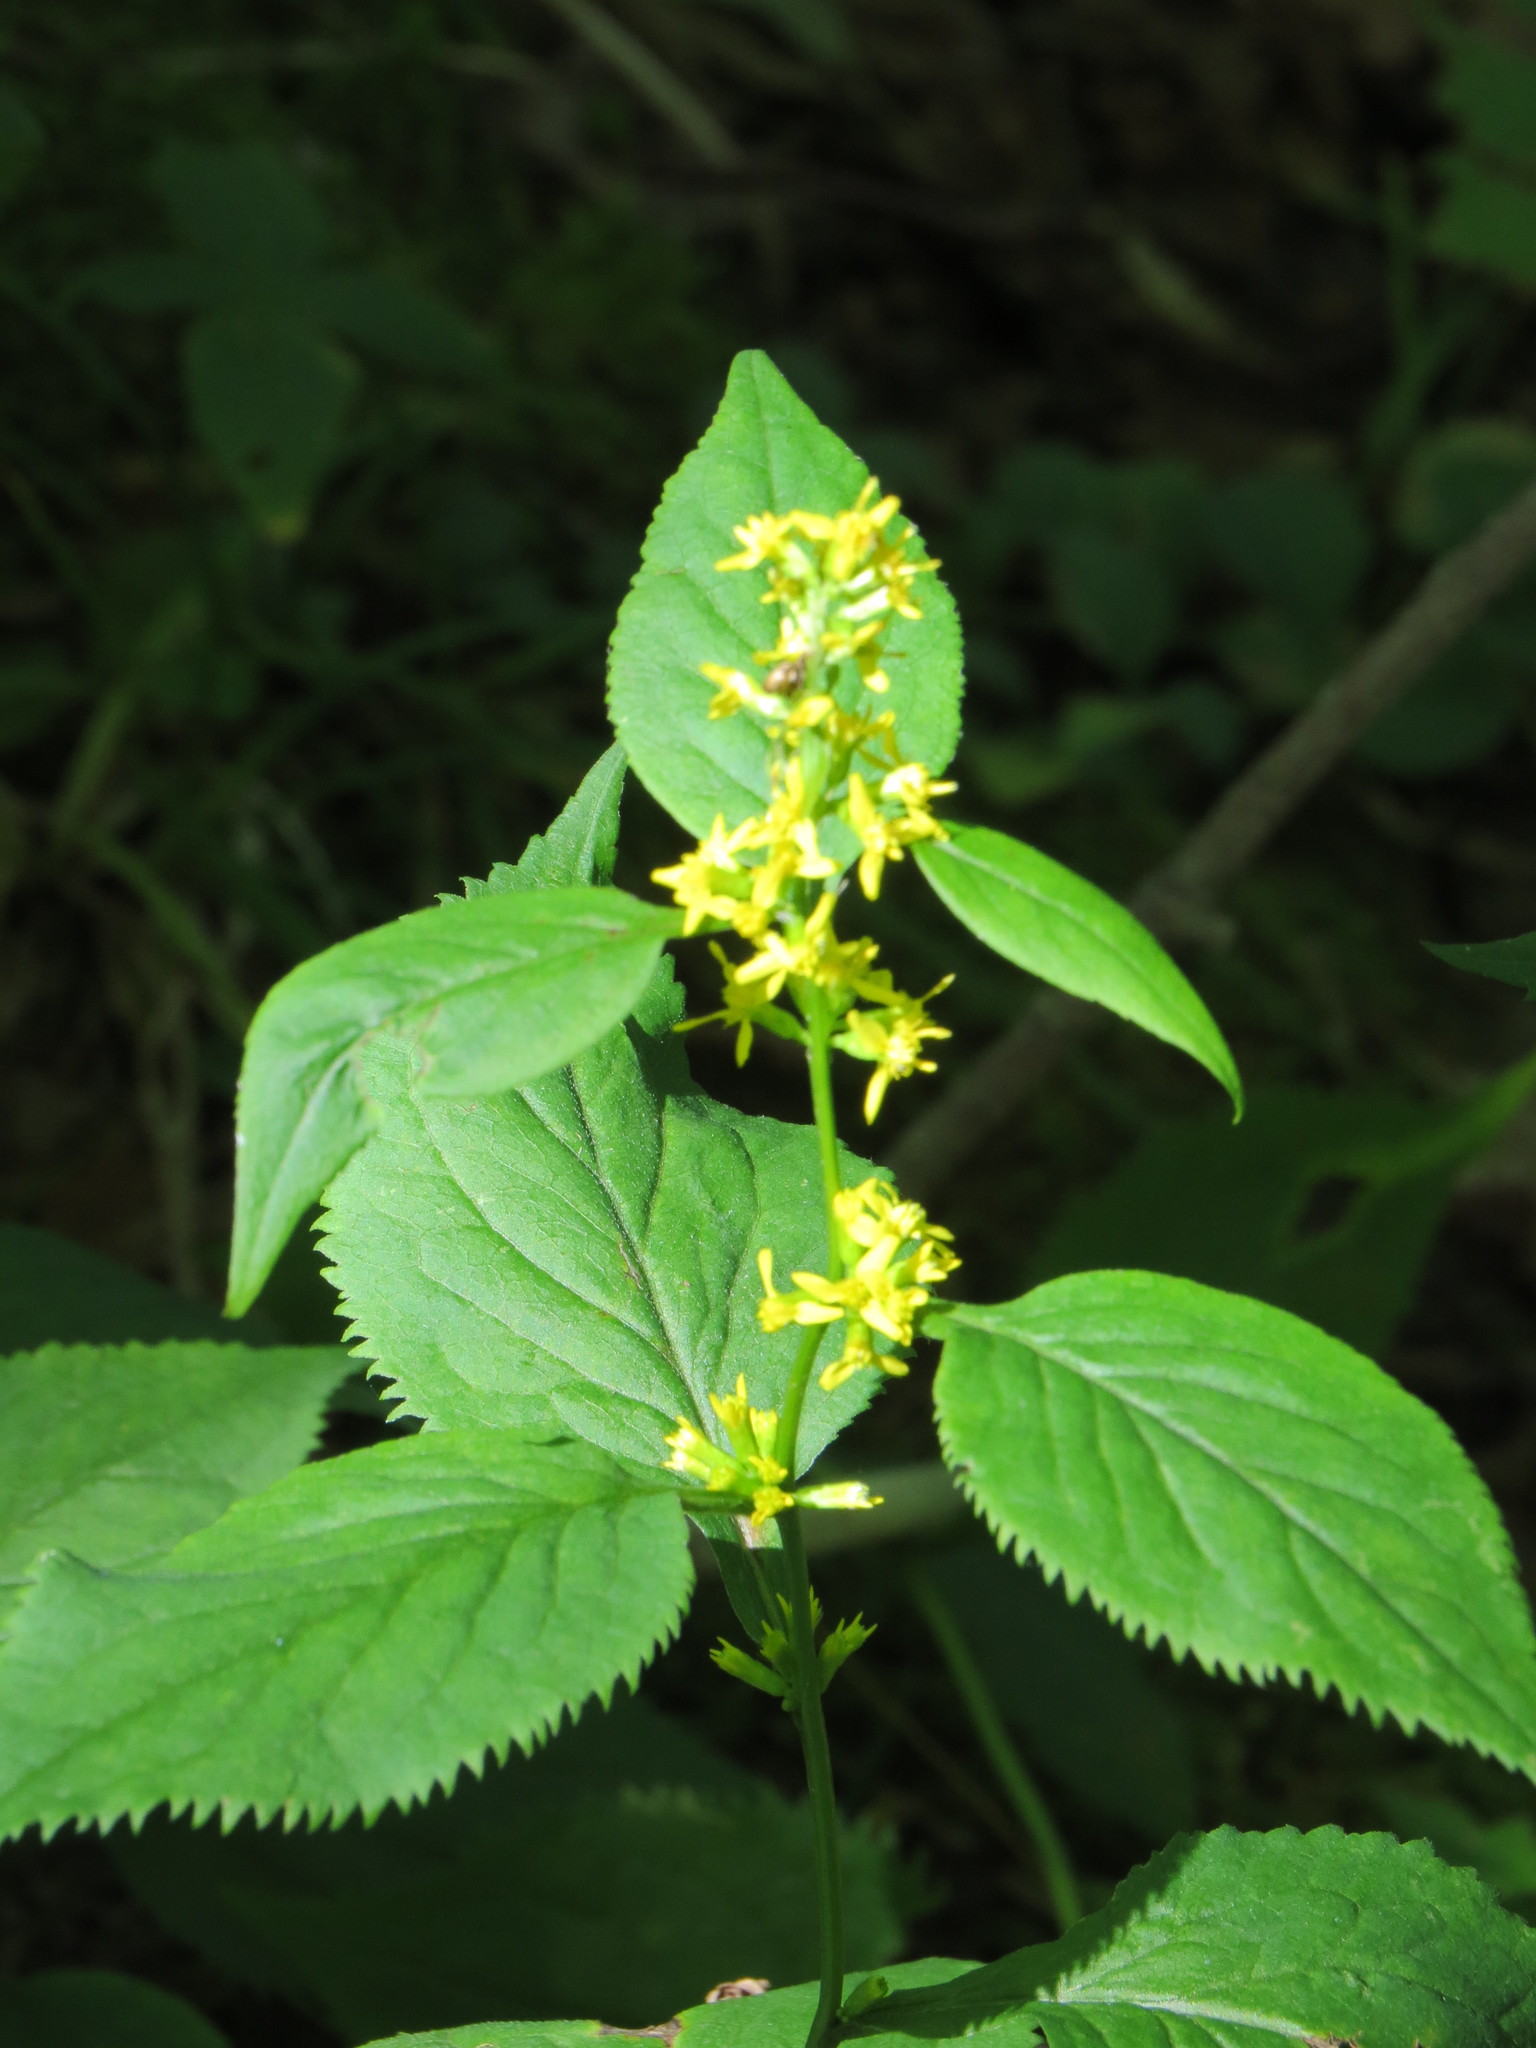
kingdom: Plantae
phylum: Tracheophyta
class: Magnoliopsida
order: Asterales
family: Asteraceae
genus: Solidago
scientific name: Solidago flexicaulis
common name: Zig-zag goldenrod
